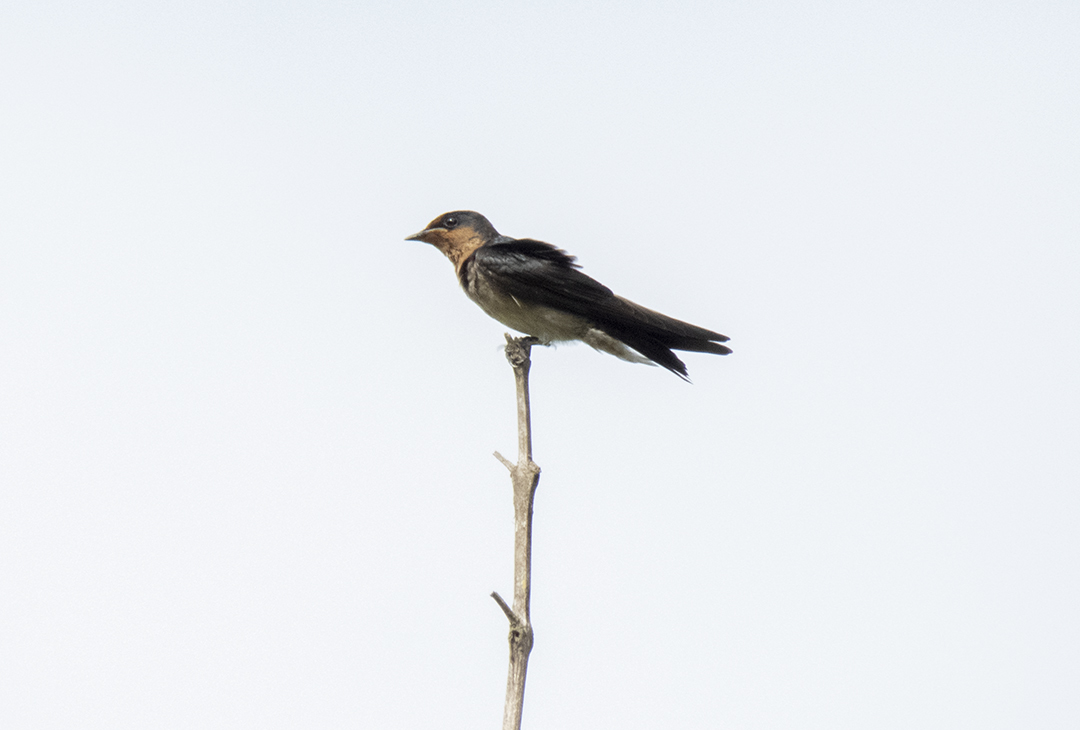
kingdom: Animalia
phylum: Chordata
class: Aves
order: Passeriformes
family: Hirundinidae
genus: Hirundo
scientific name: Hirundo tahitica
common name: Pacific swallow
